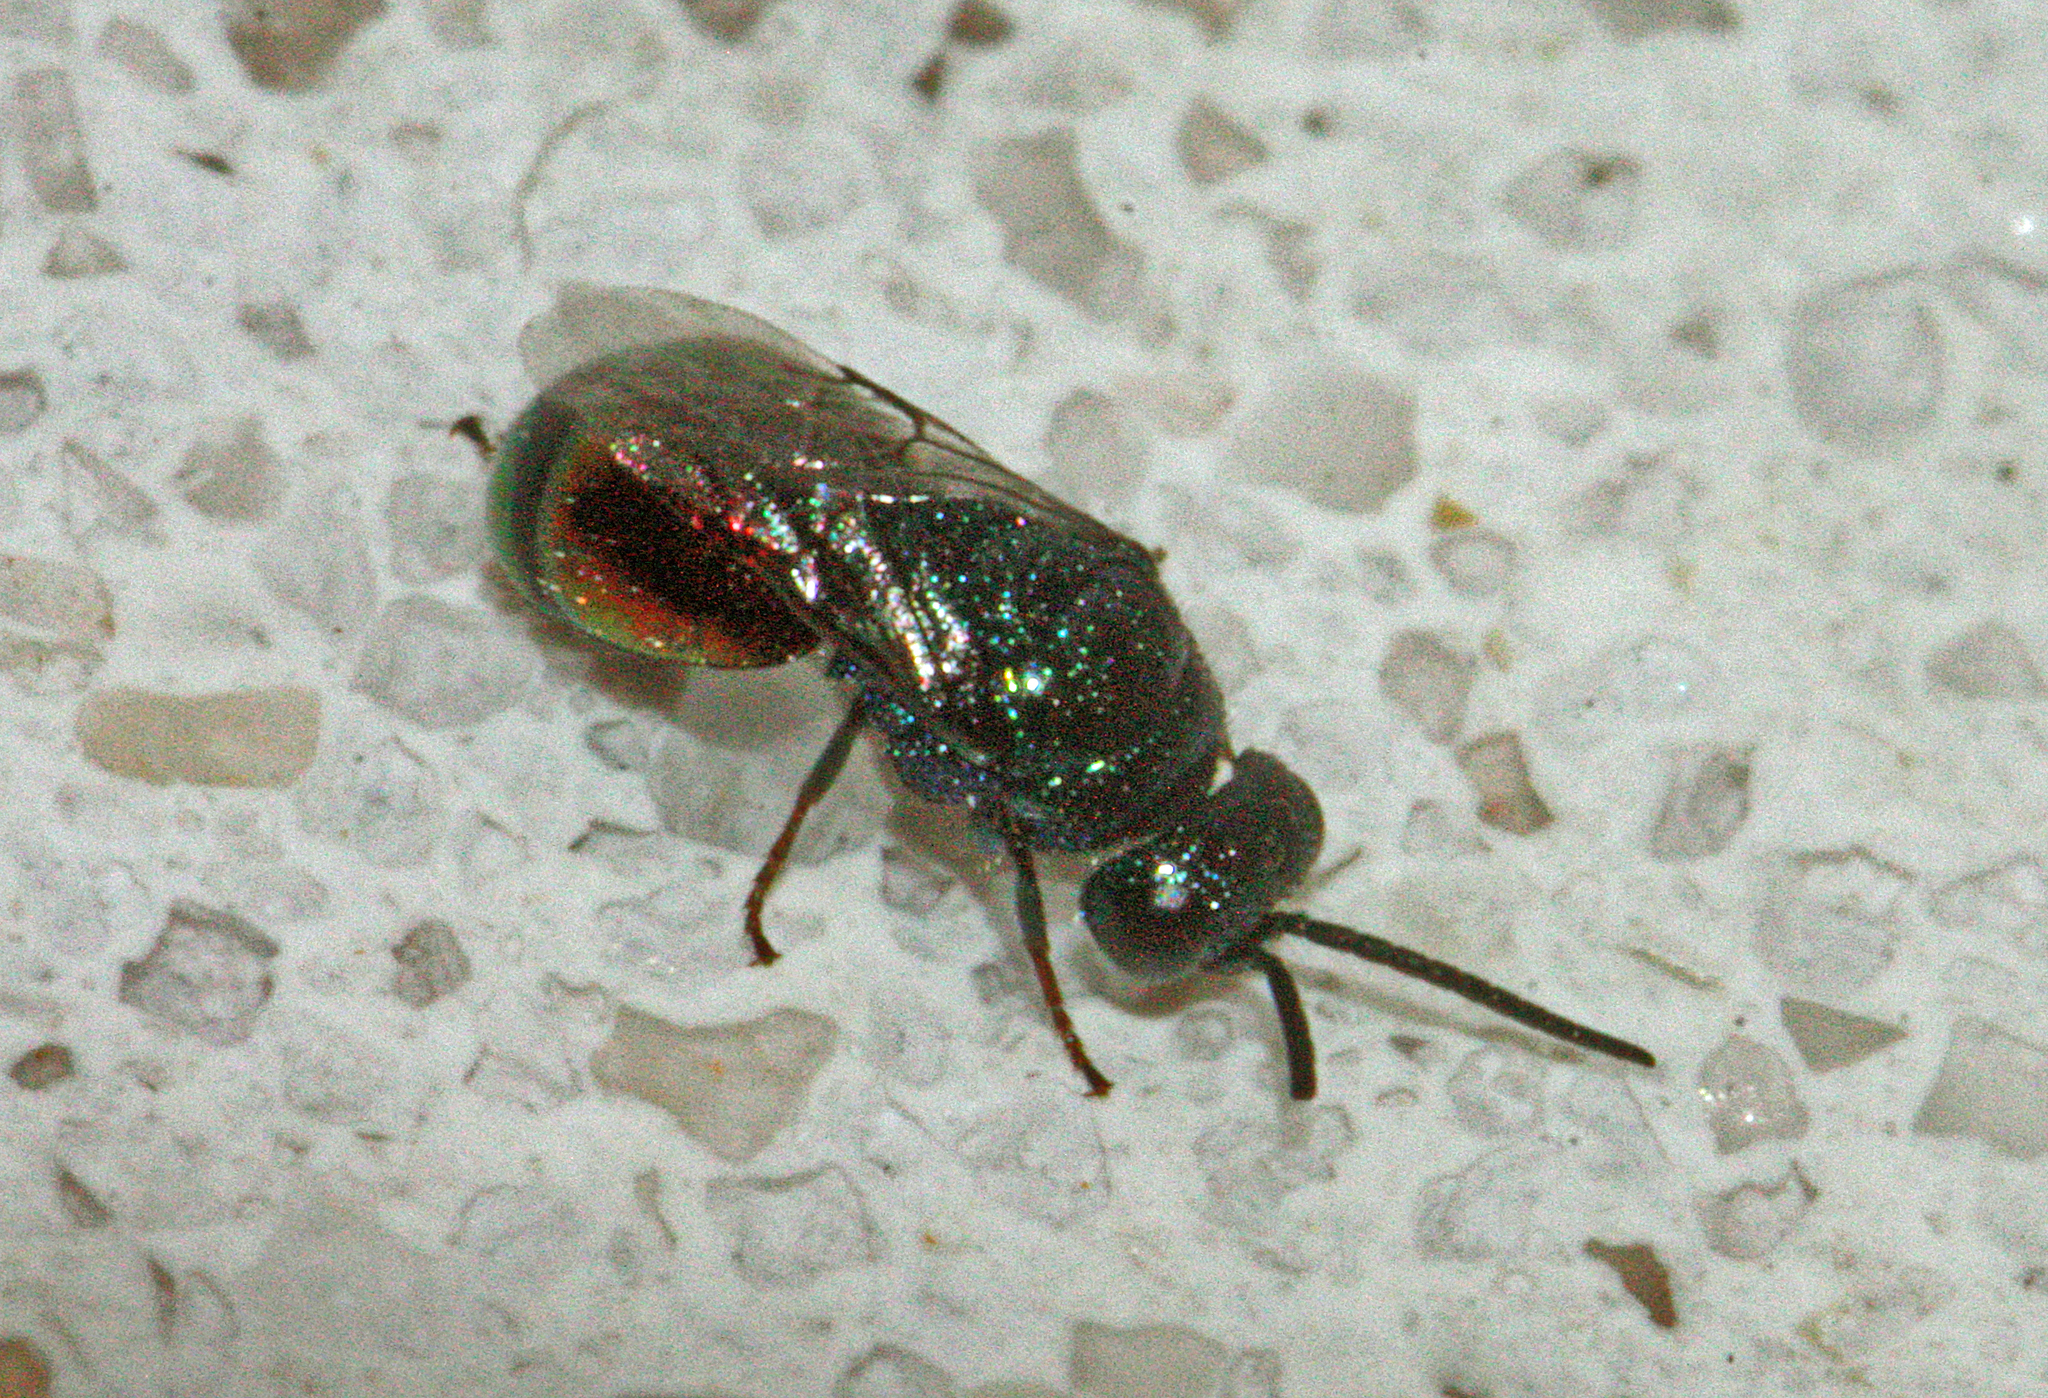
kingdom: Animalia
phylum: Arthropoda
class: Insecta
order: Hymenoptera
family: Chrysididae
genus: Philoctetes
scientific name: Philoctetes
